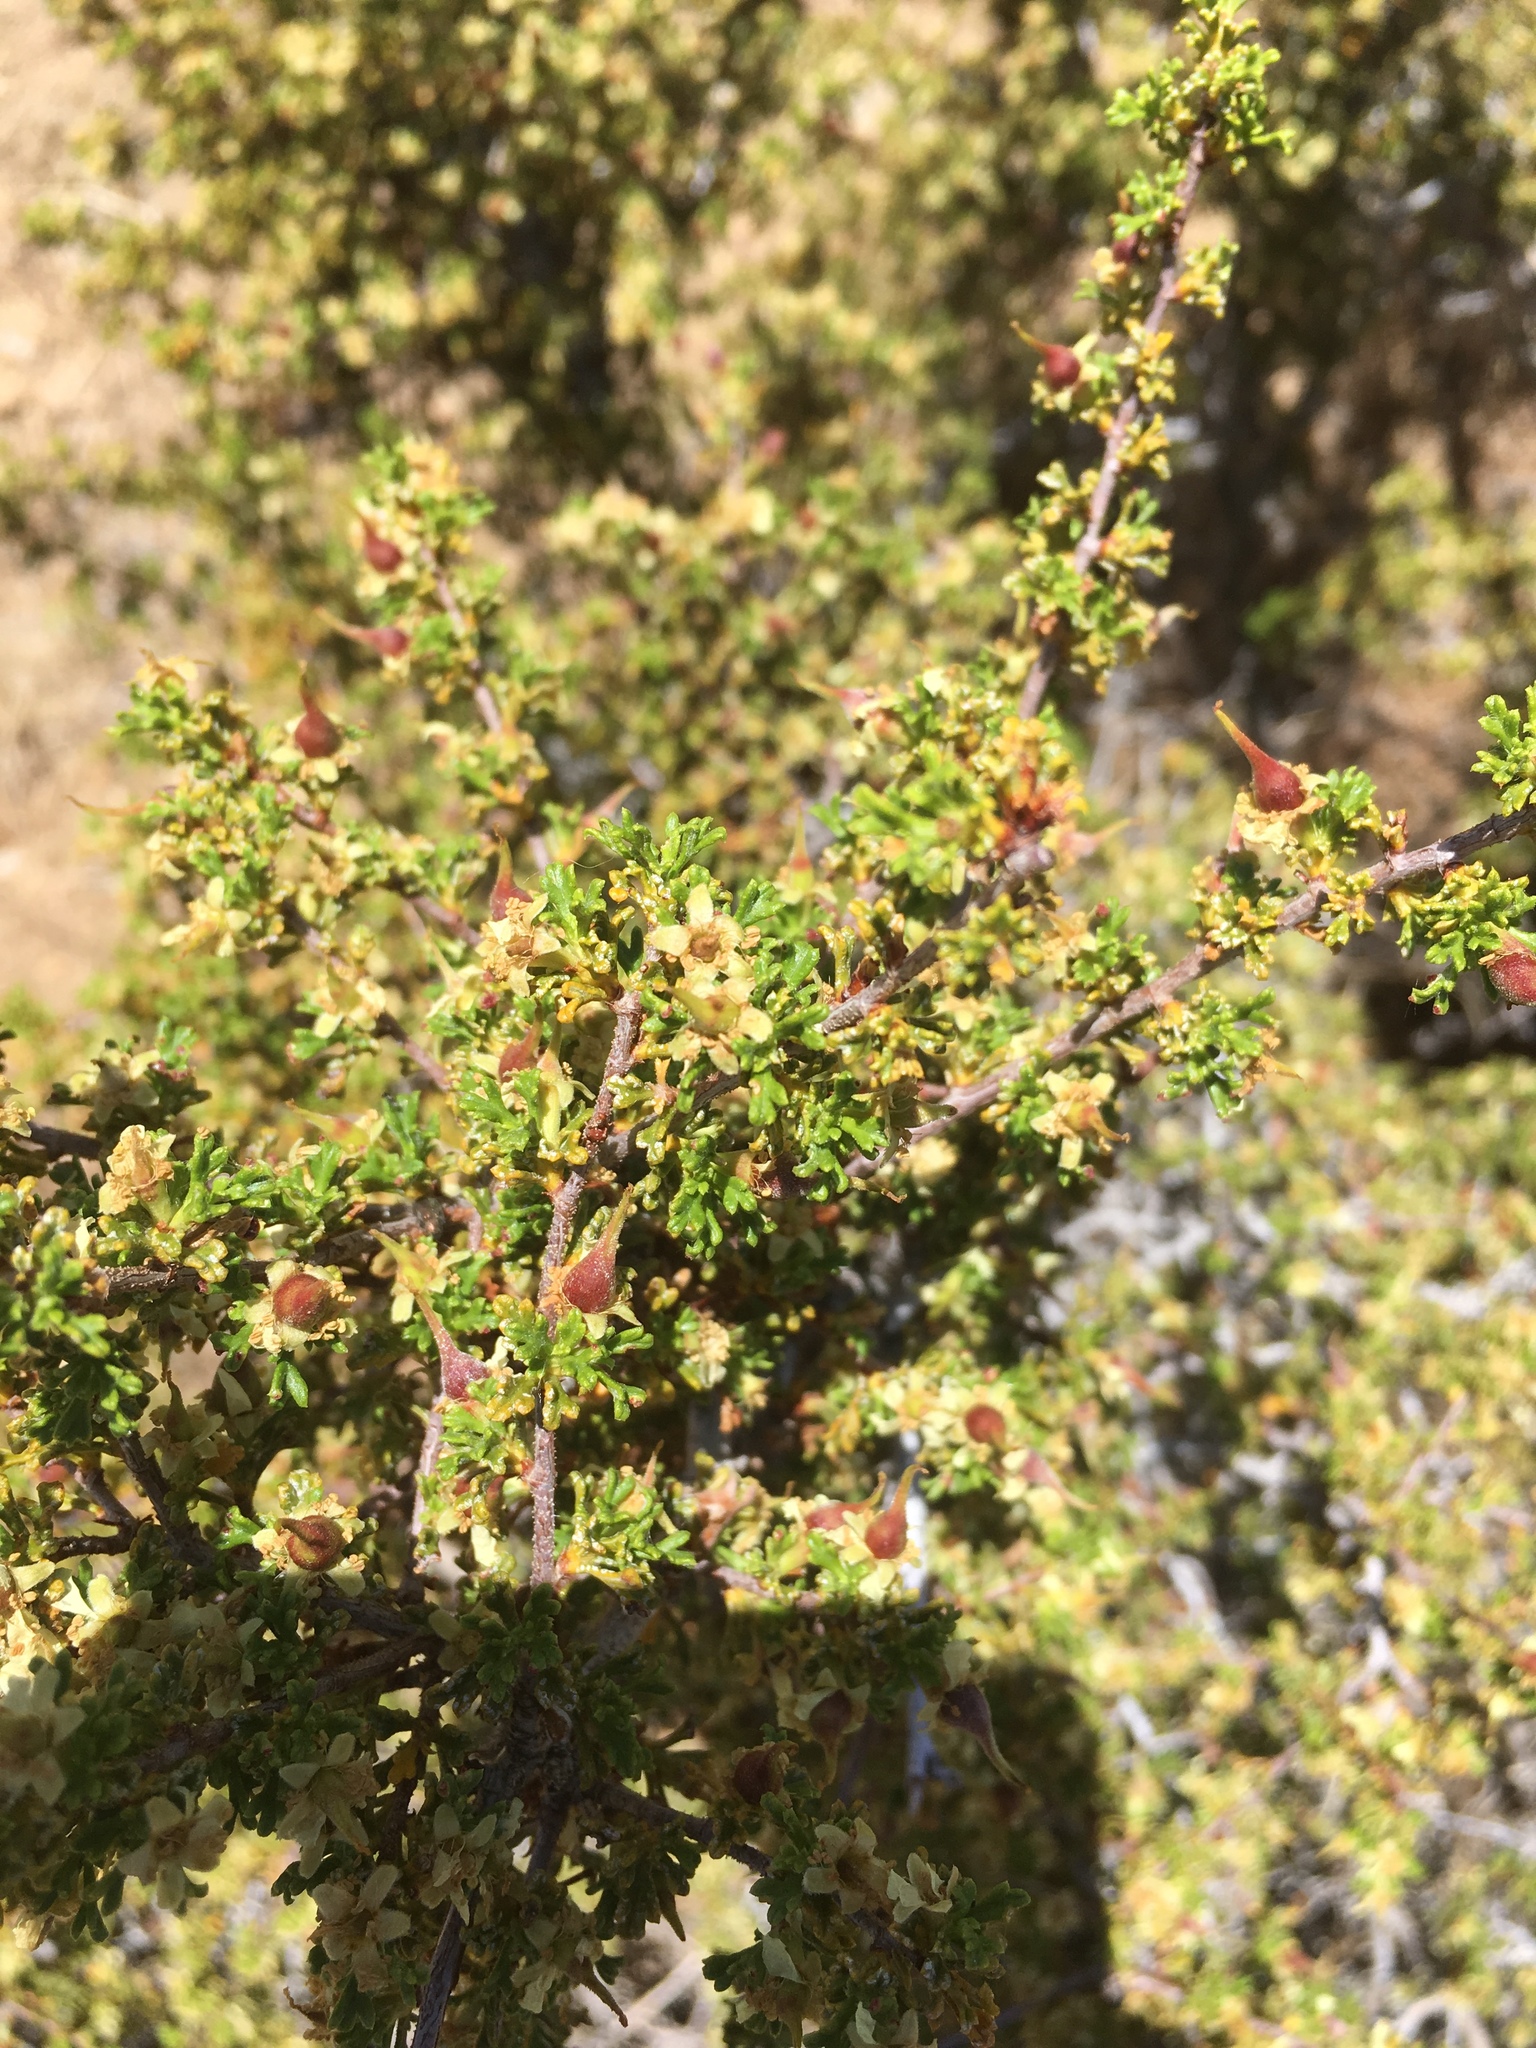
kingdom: Plantae
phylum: Tracheophyta
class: Magnoliopsida
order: Rosales
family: Rosaceae
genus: Purshia
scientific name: Purshia glandulosa
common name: Desert bitterbrush
